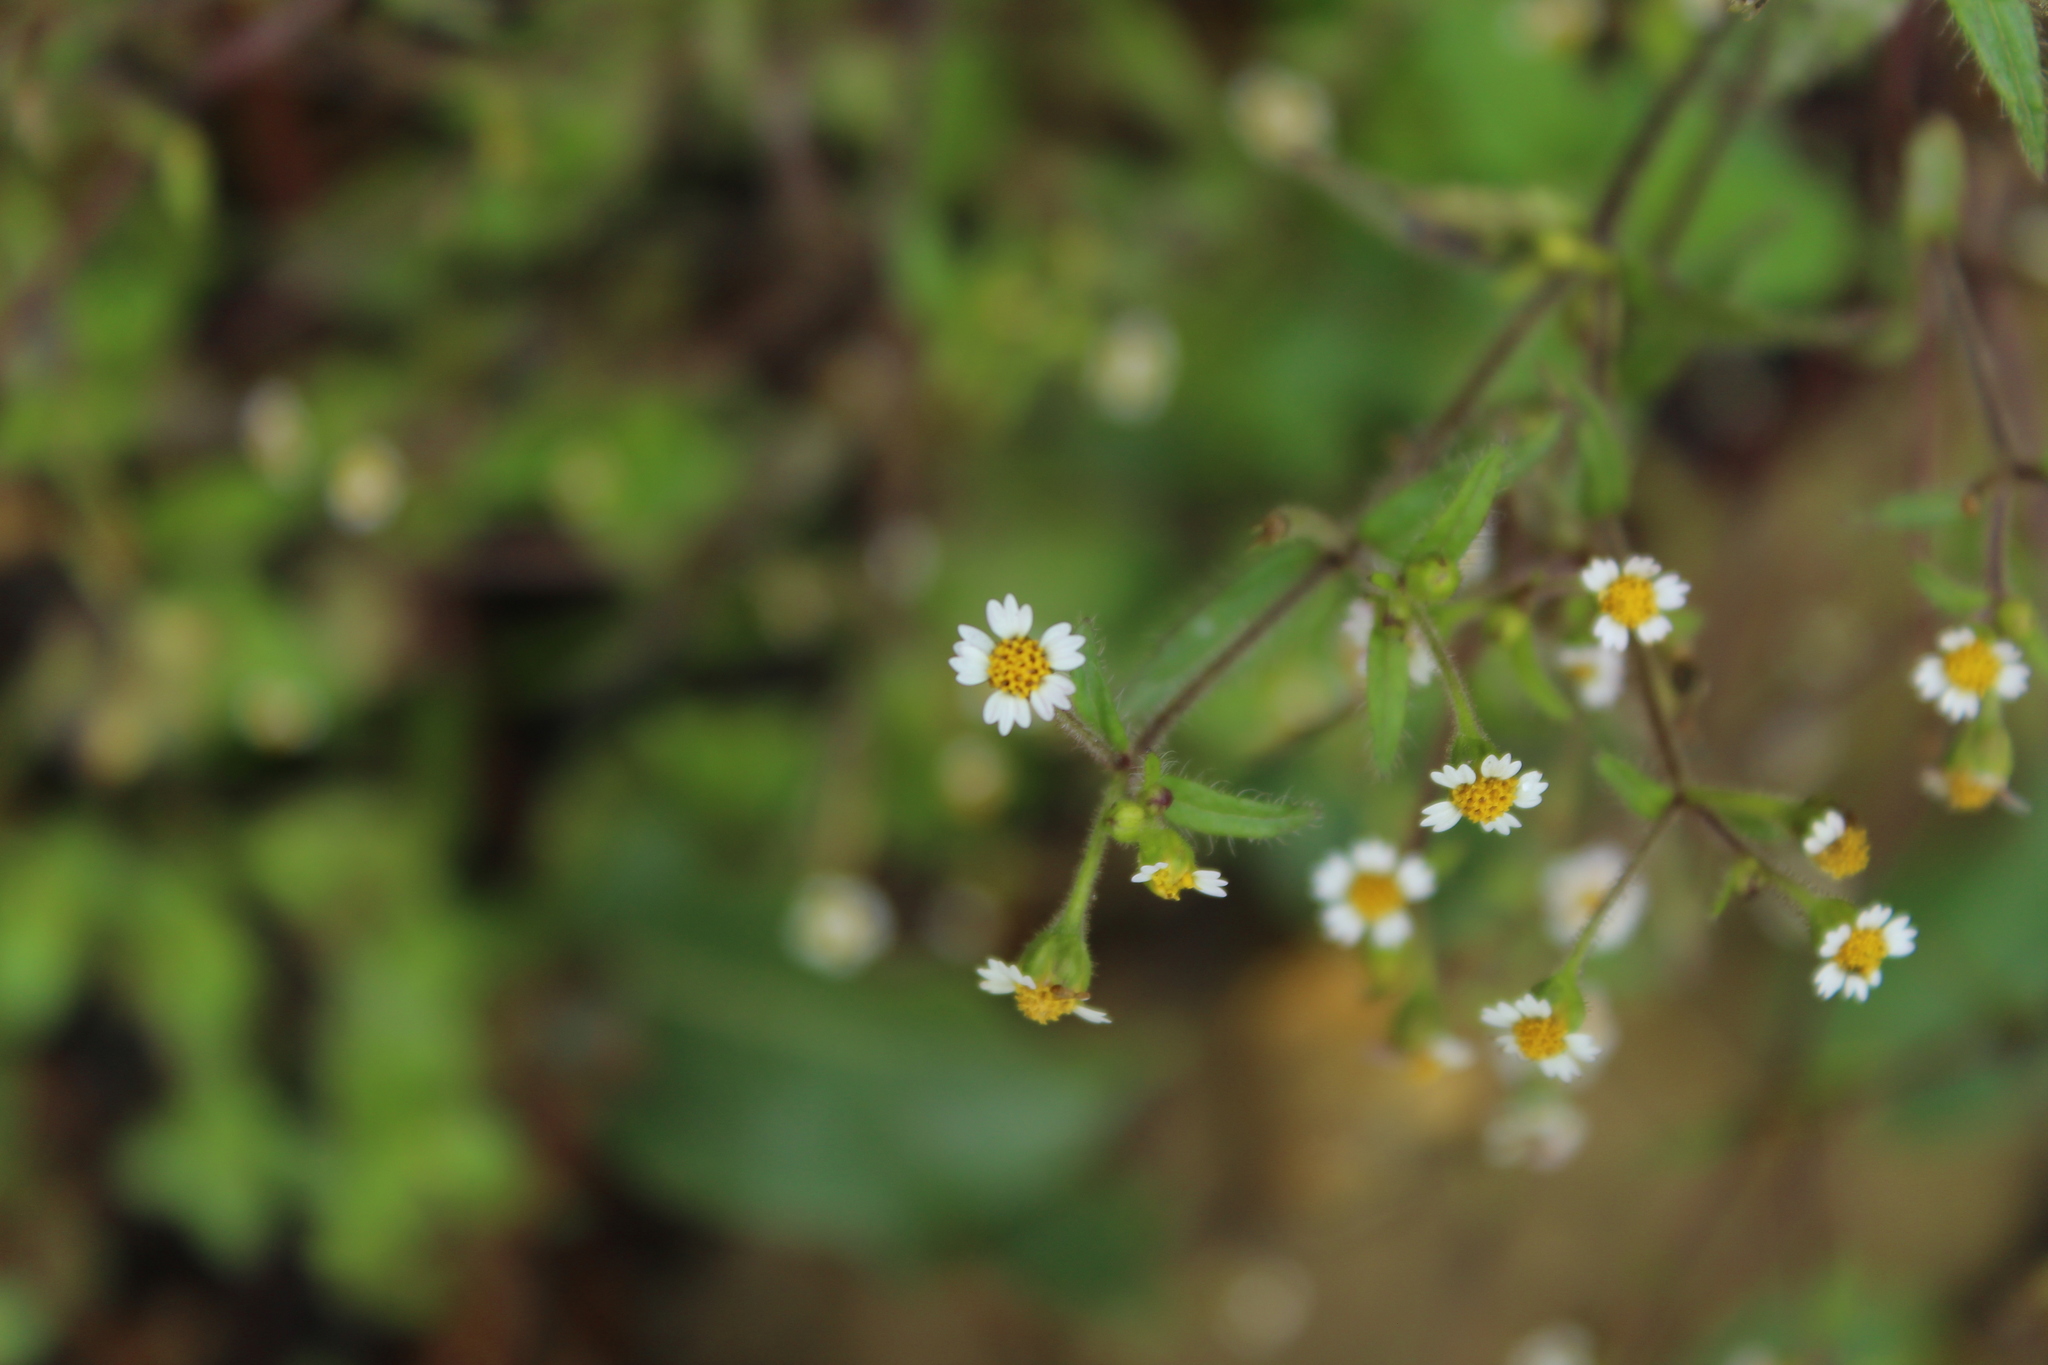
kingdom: Plantae
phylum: Tracheophyta
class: Magnoliopsida
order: Asterales
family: Asteraceae
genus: Galinsoga
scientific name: Galinsoga quadriradiata
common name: Shaggy soldier
